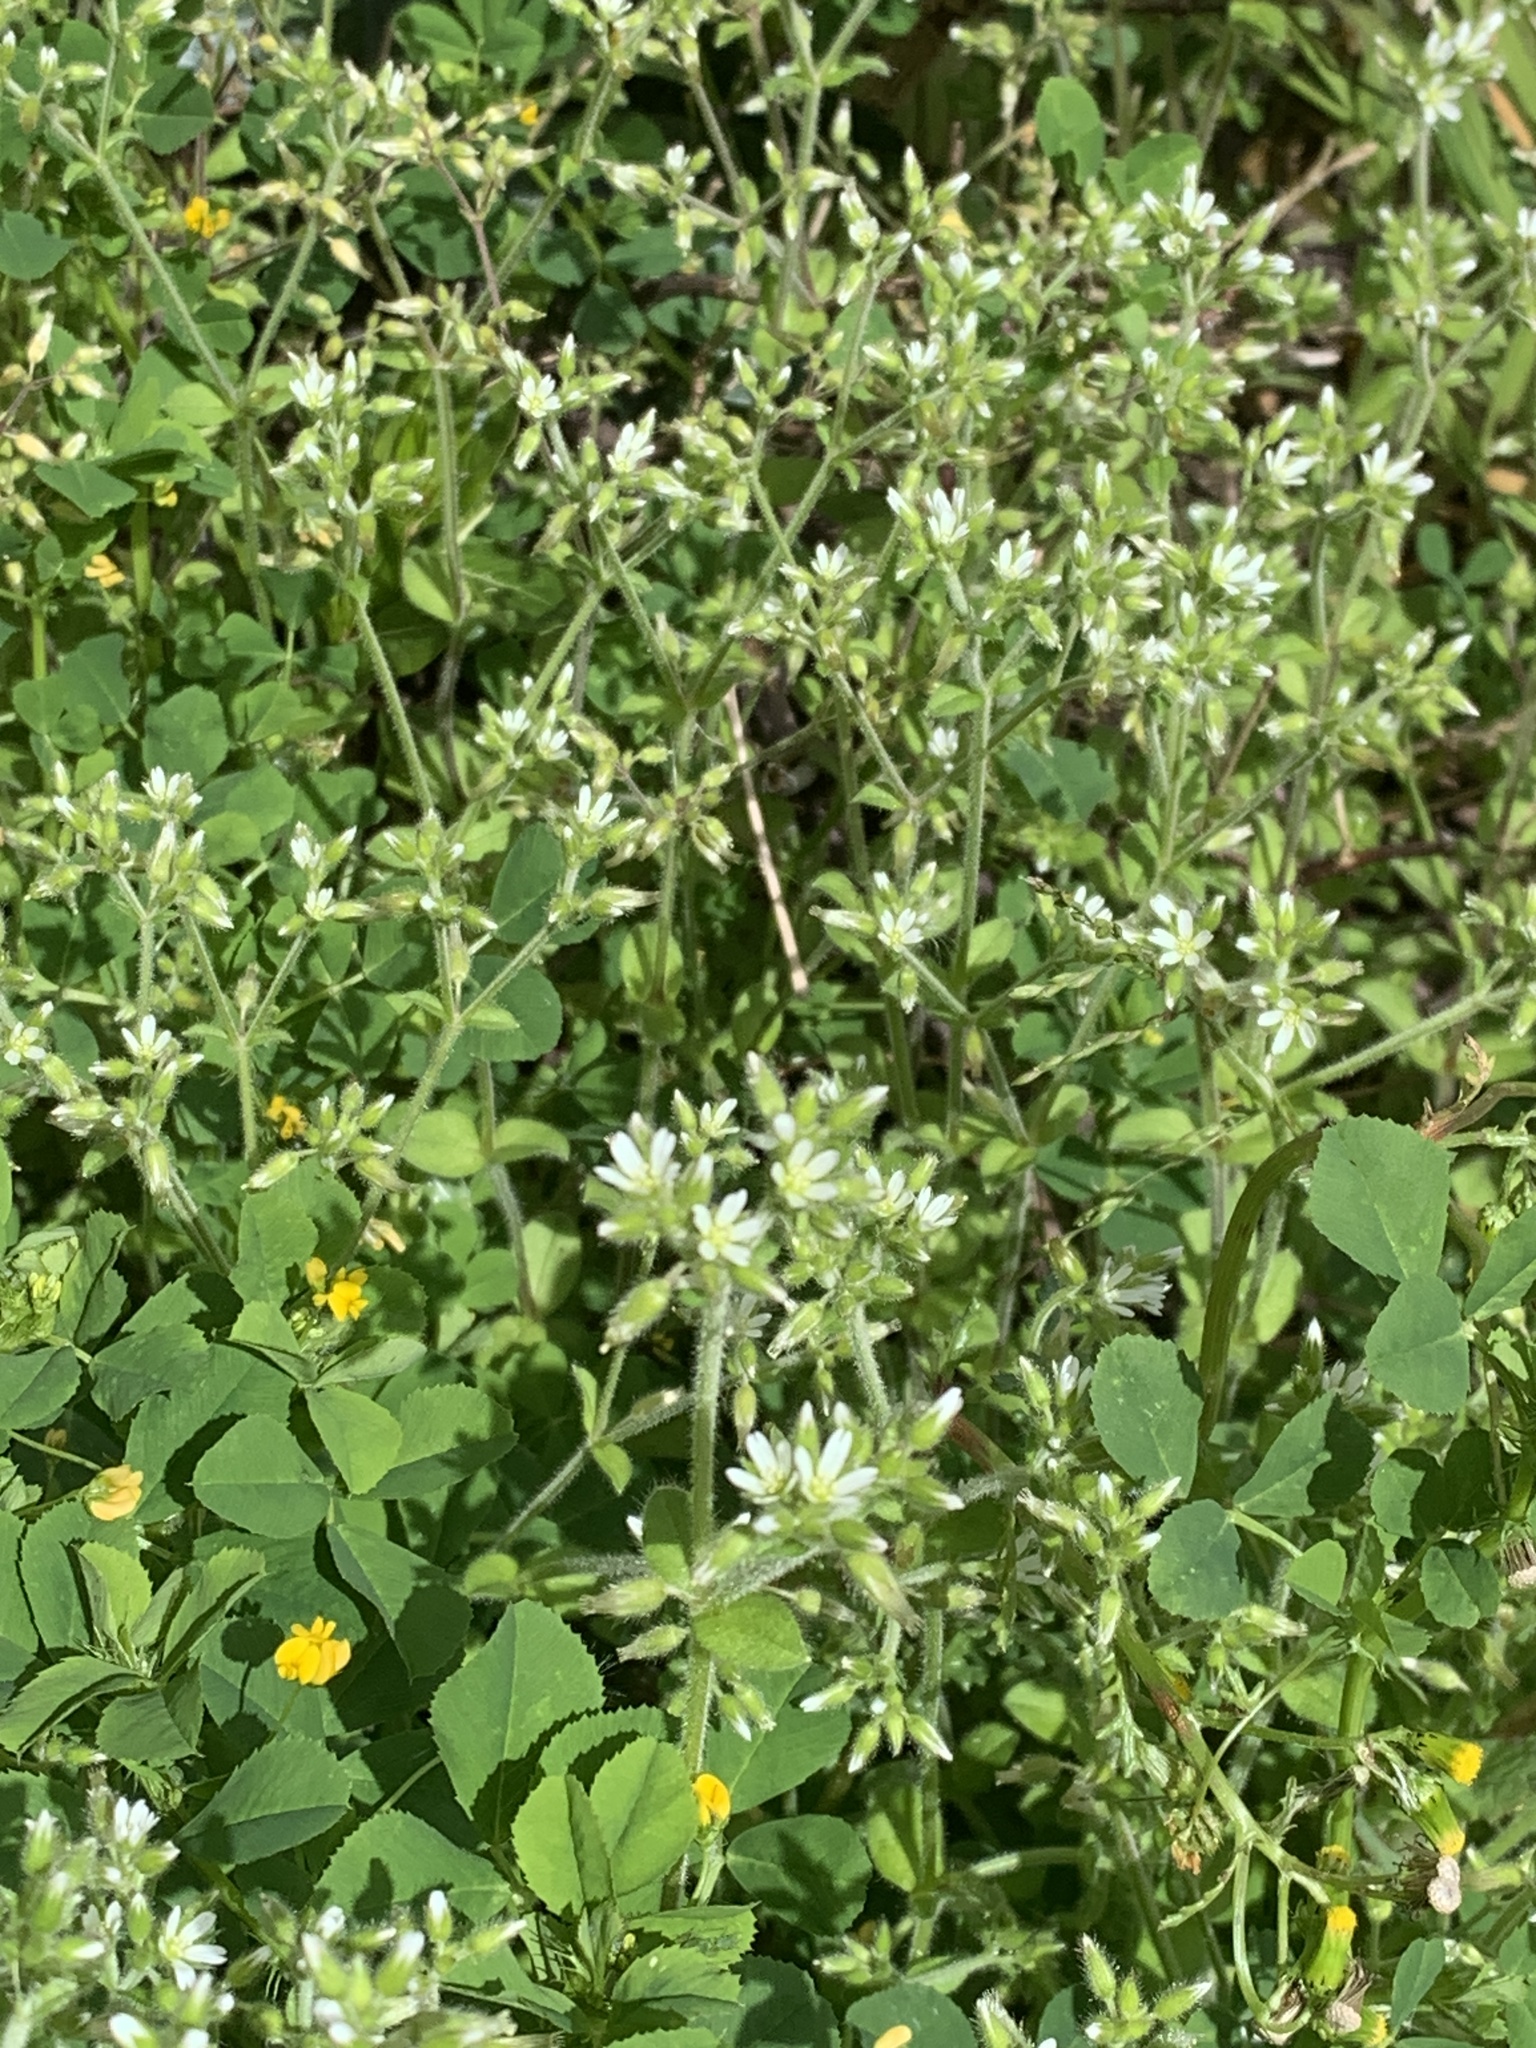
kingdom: Plantae
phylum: Tracheophyta
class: Magnoliopsida
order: Caryophyllales
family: Caryophyllaceae
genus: Cerastium
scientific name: Cerastium glomeratum
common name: Sticky chickweed
